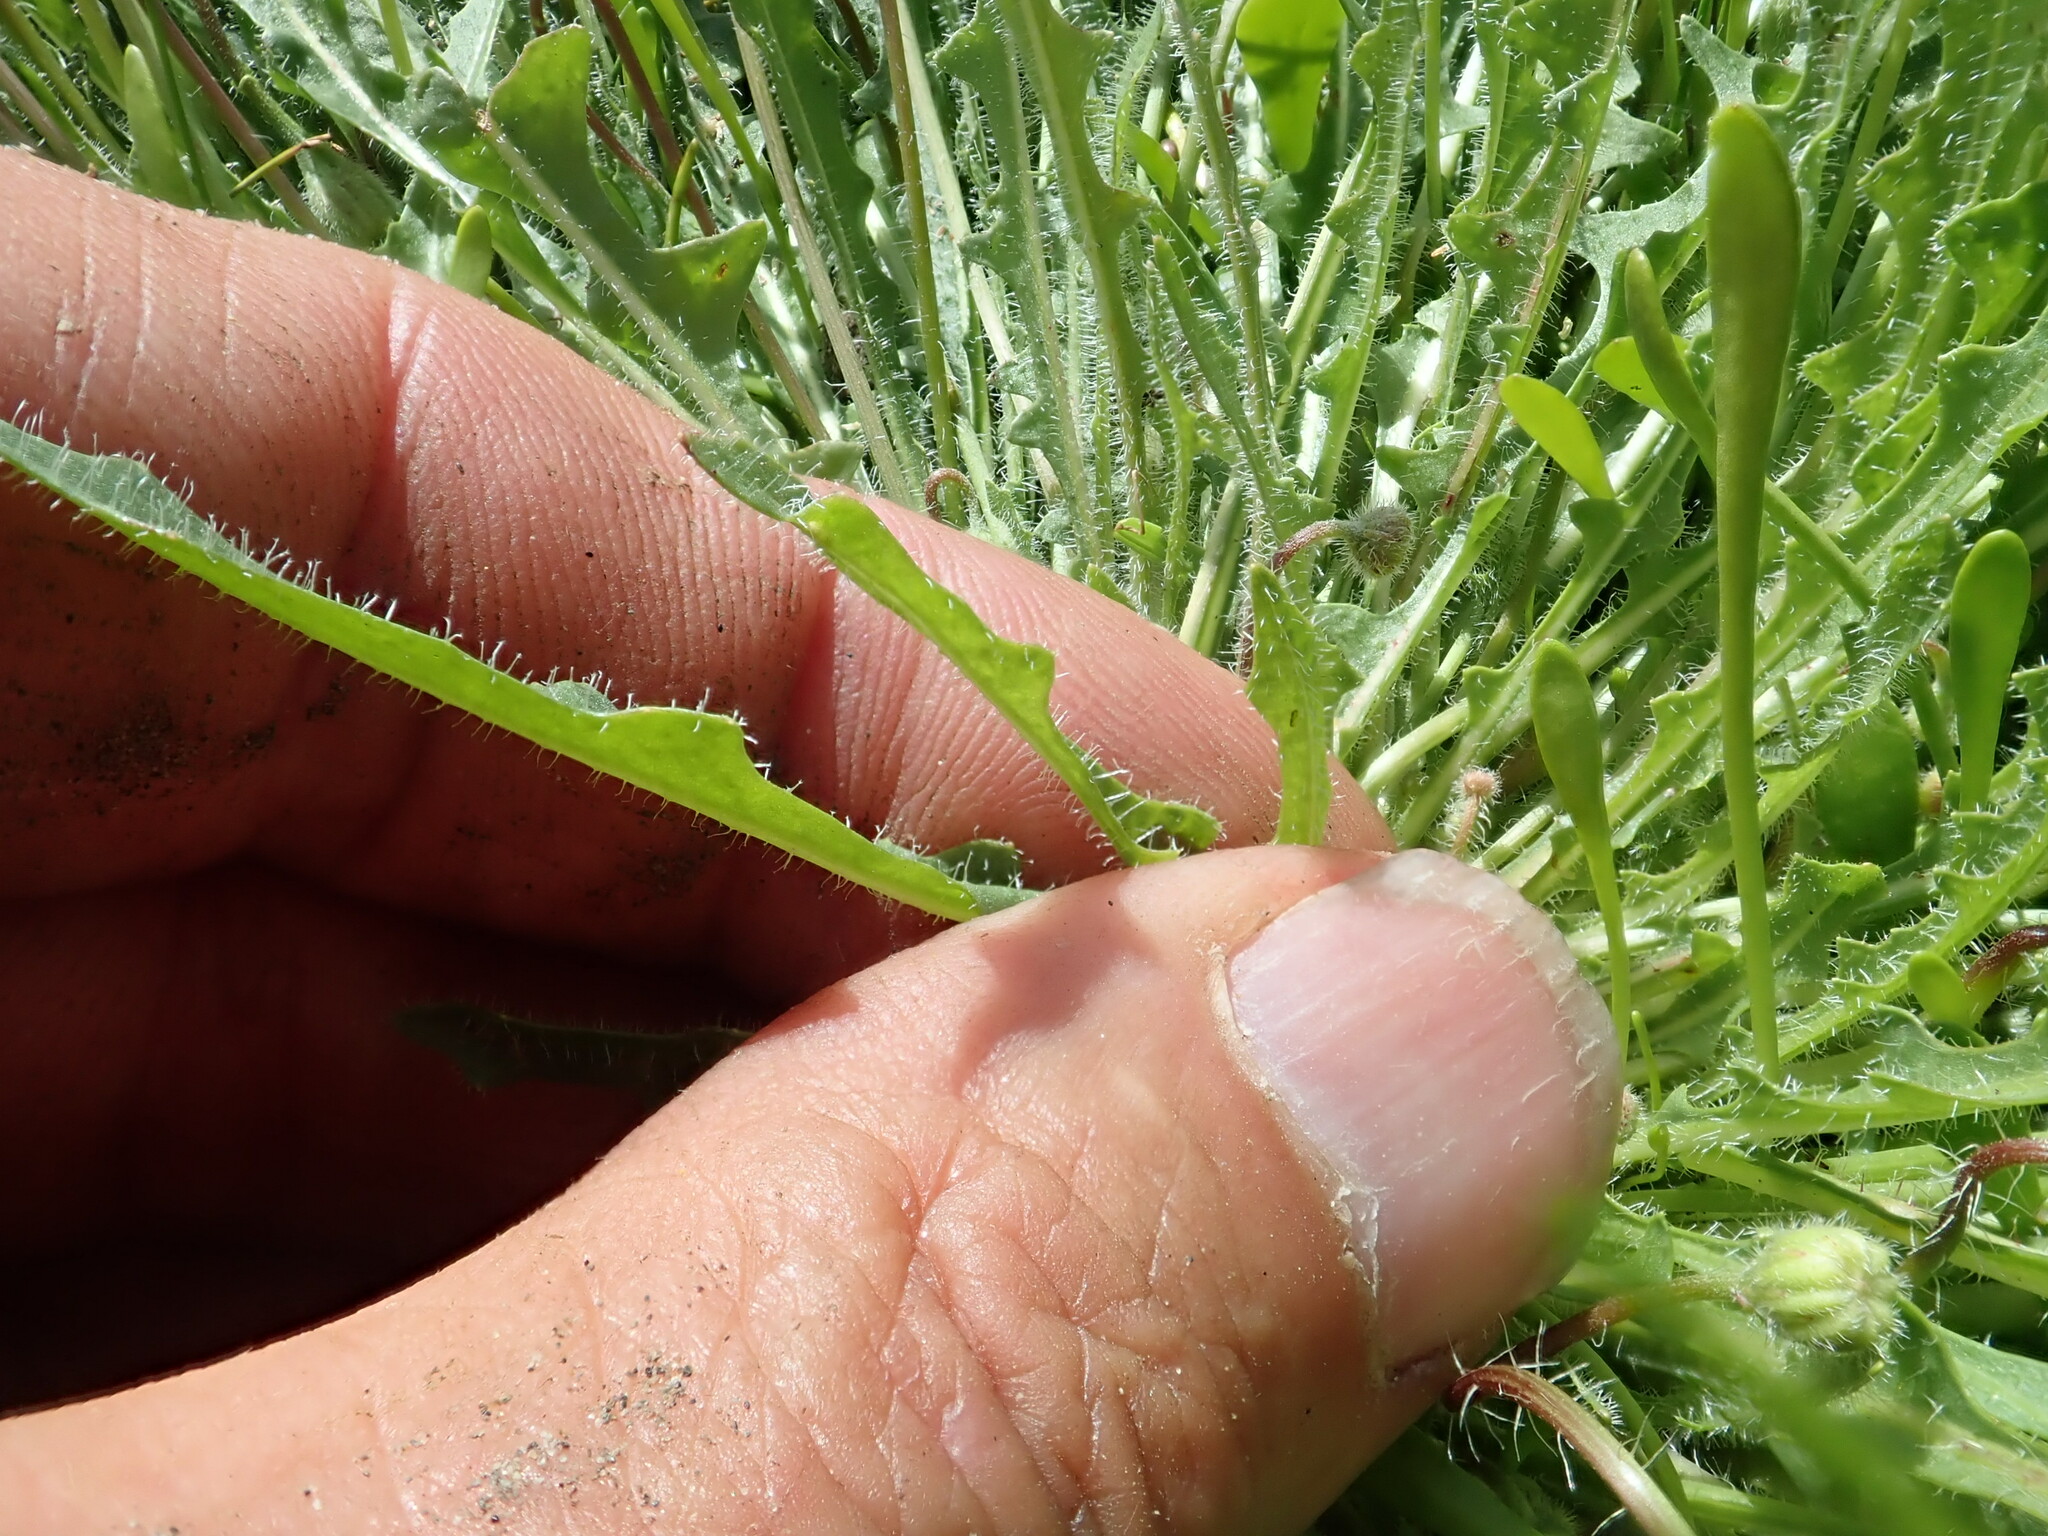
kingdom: Plantae
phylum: Tracheophyta
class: Magnoliopsida
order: Asterales
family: Asteraceae
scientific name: Asteraceae
